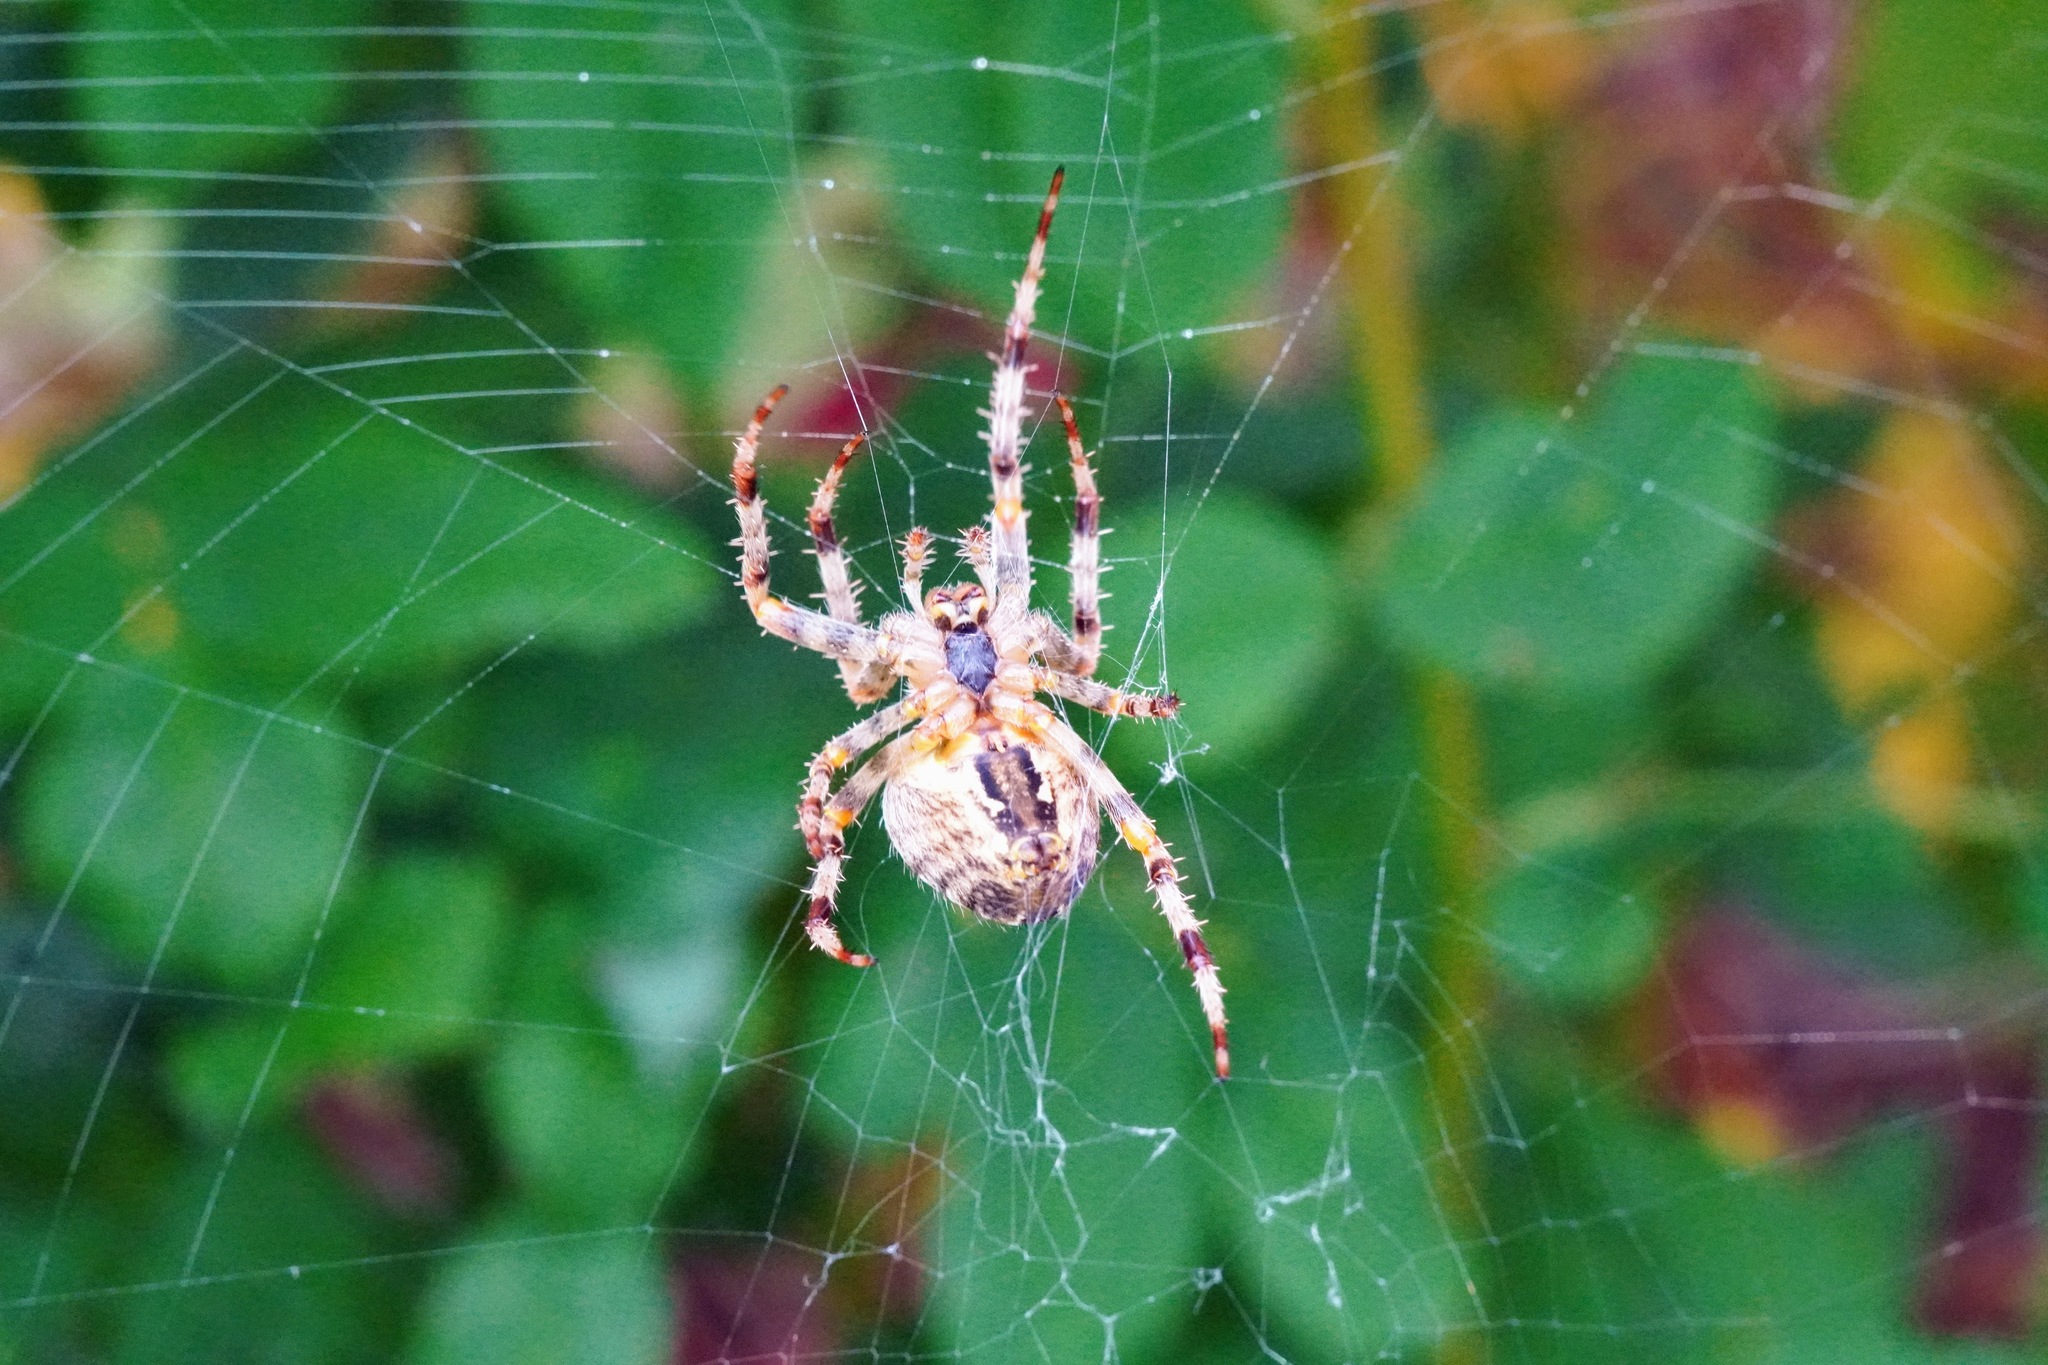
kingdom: Animalia
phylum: Arthropoda
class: Arachnida
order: Araneae
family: Araneidae
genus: Araneus
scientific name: Araneus diadematus
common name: Cross orbweaver
